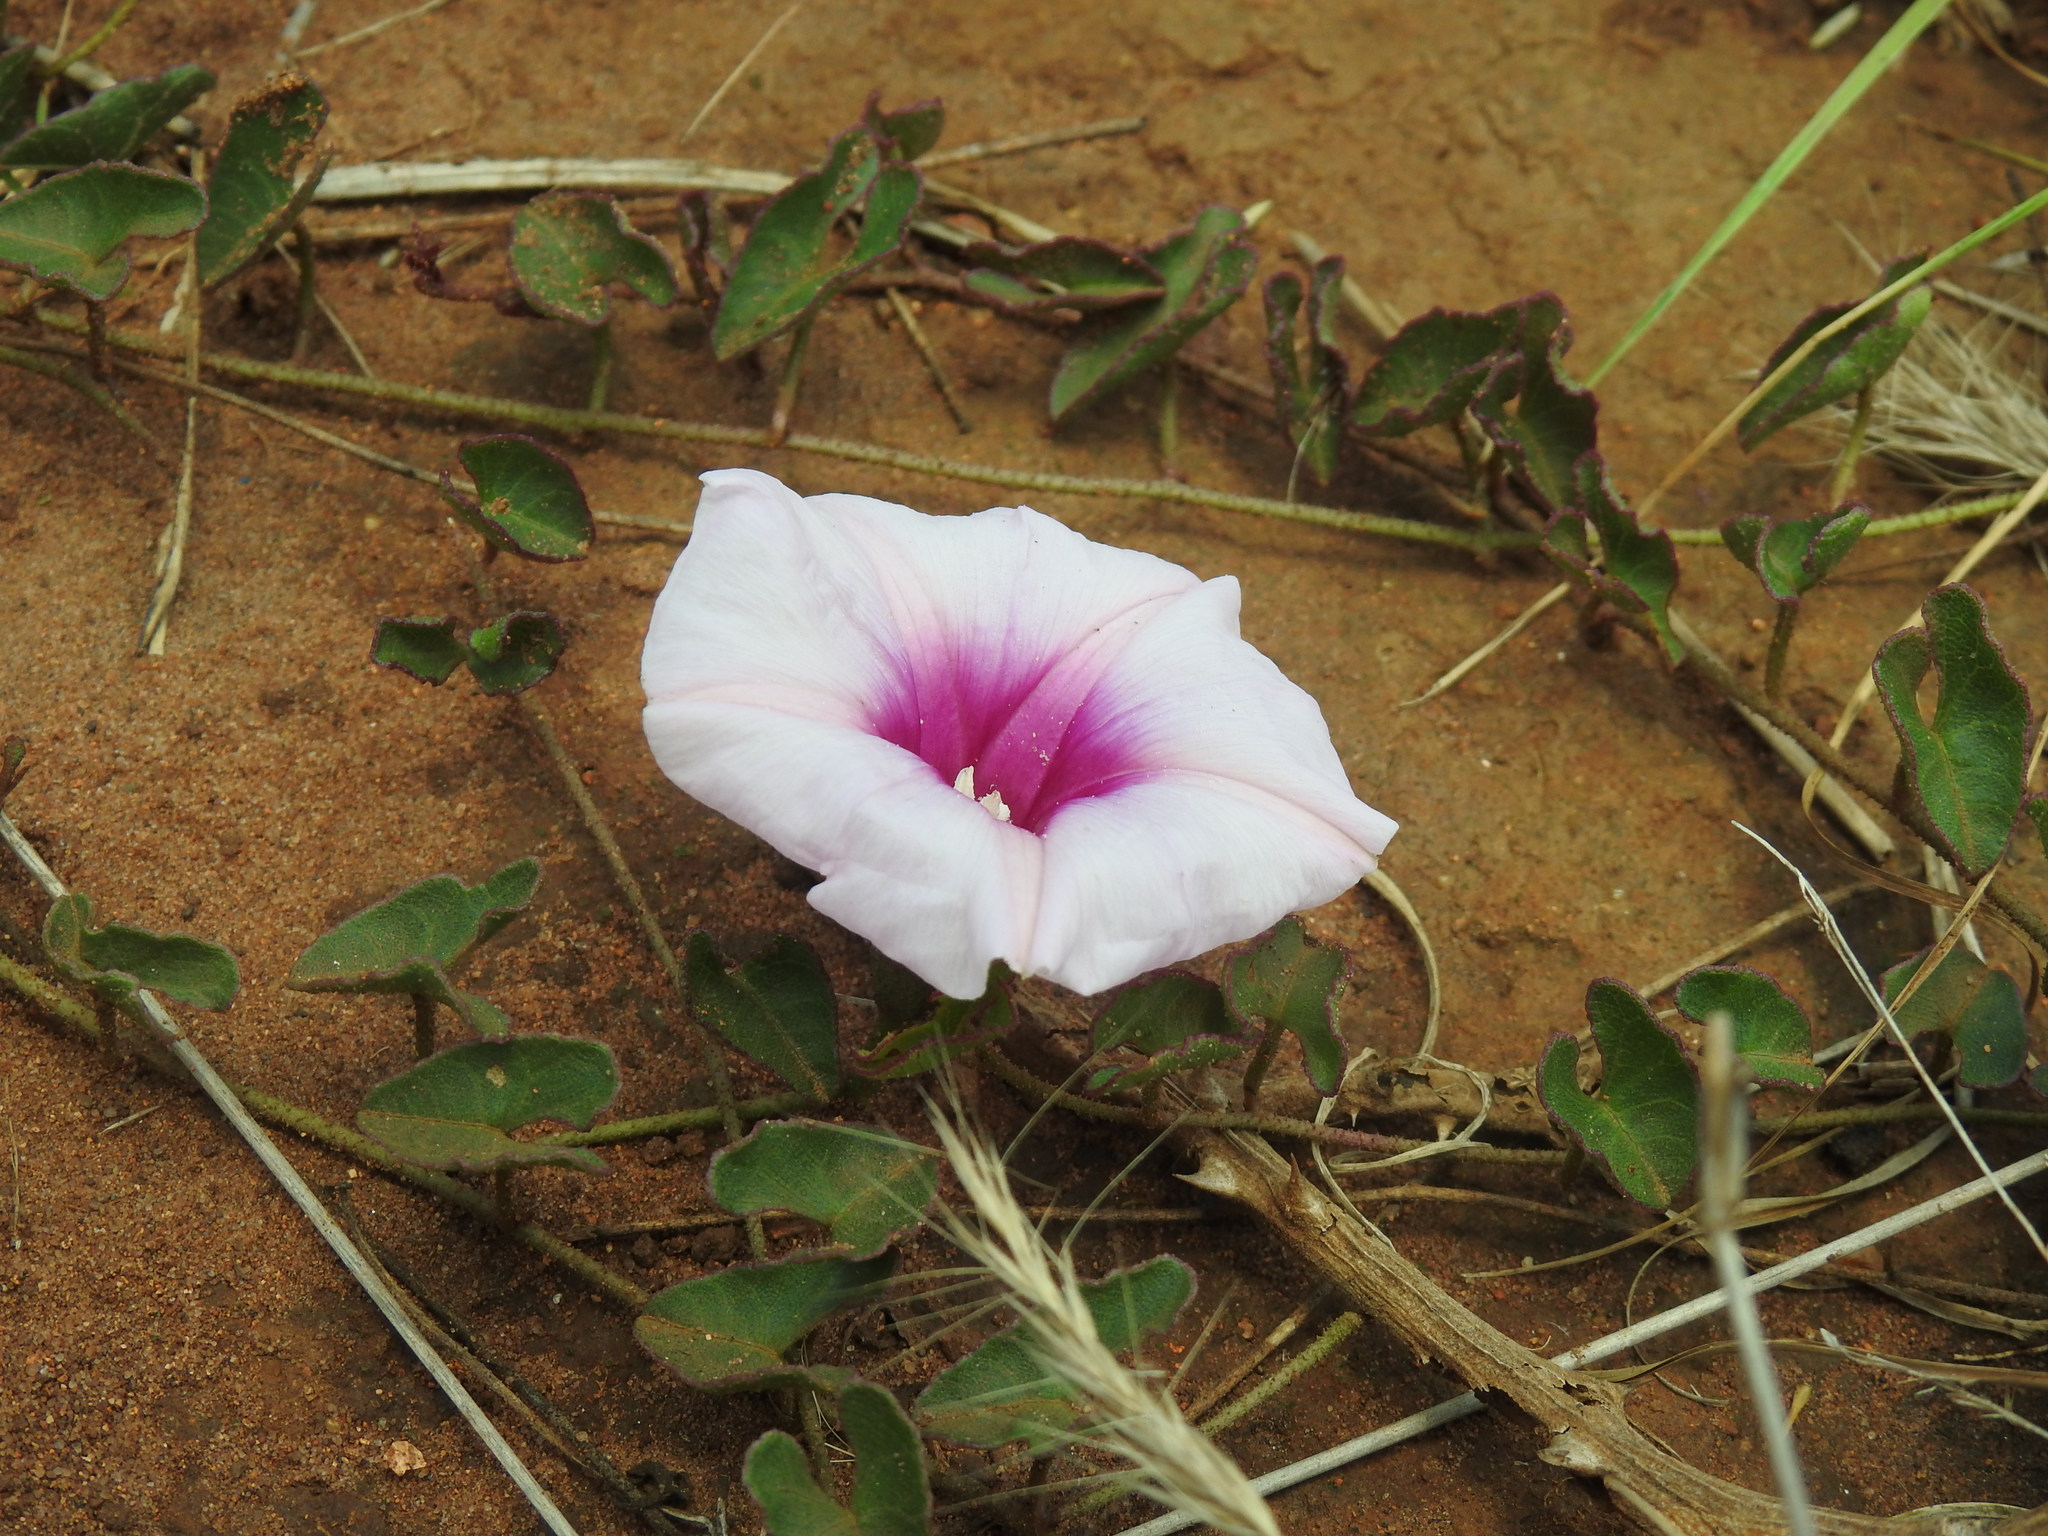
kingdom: Plantae
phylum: Tracheophyta
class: Magnoliopsida
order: Solanales
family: Convolvulaceae
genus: Ipomoea
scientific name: Ipomoea bathycolpos
